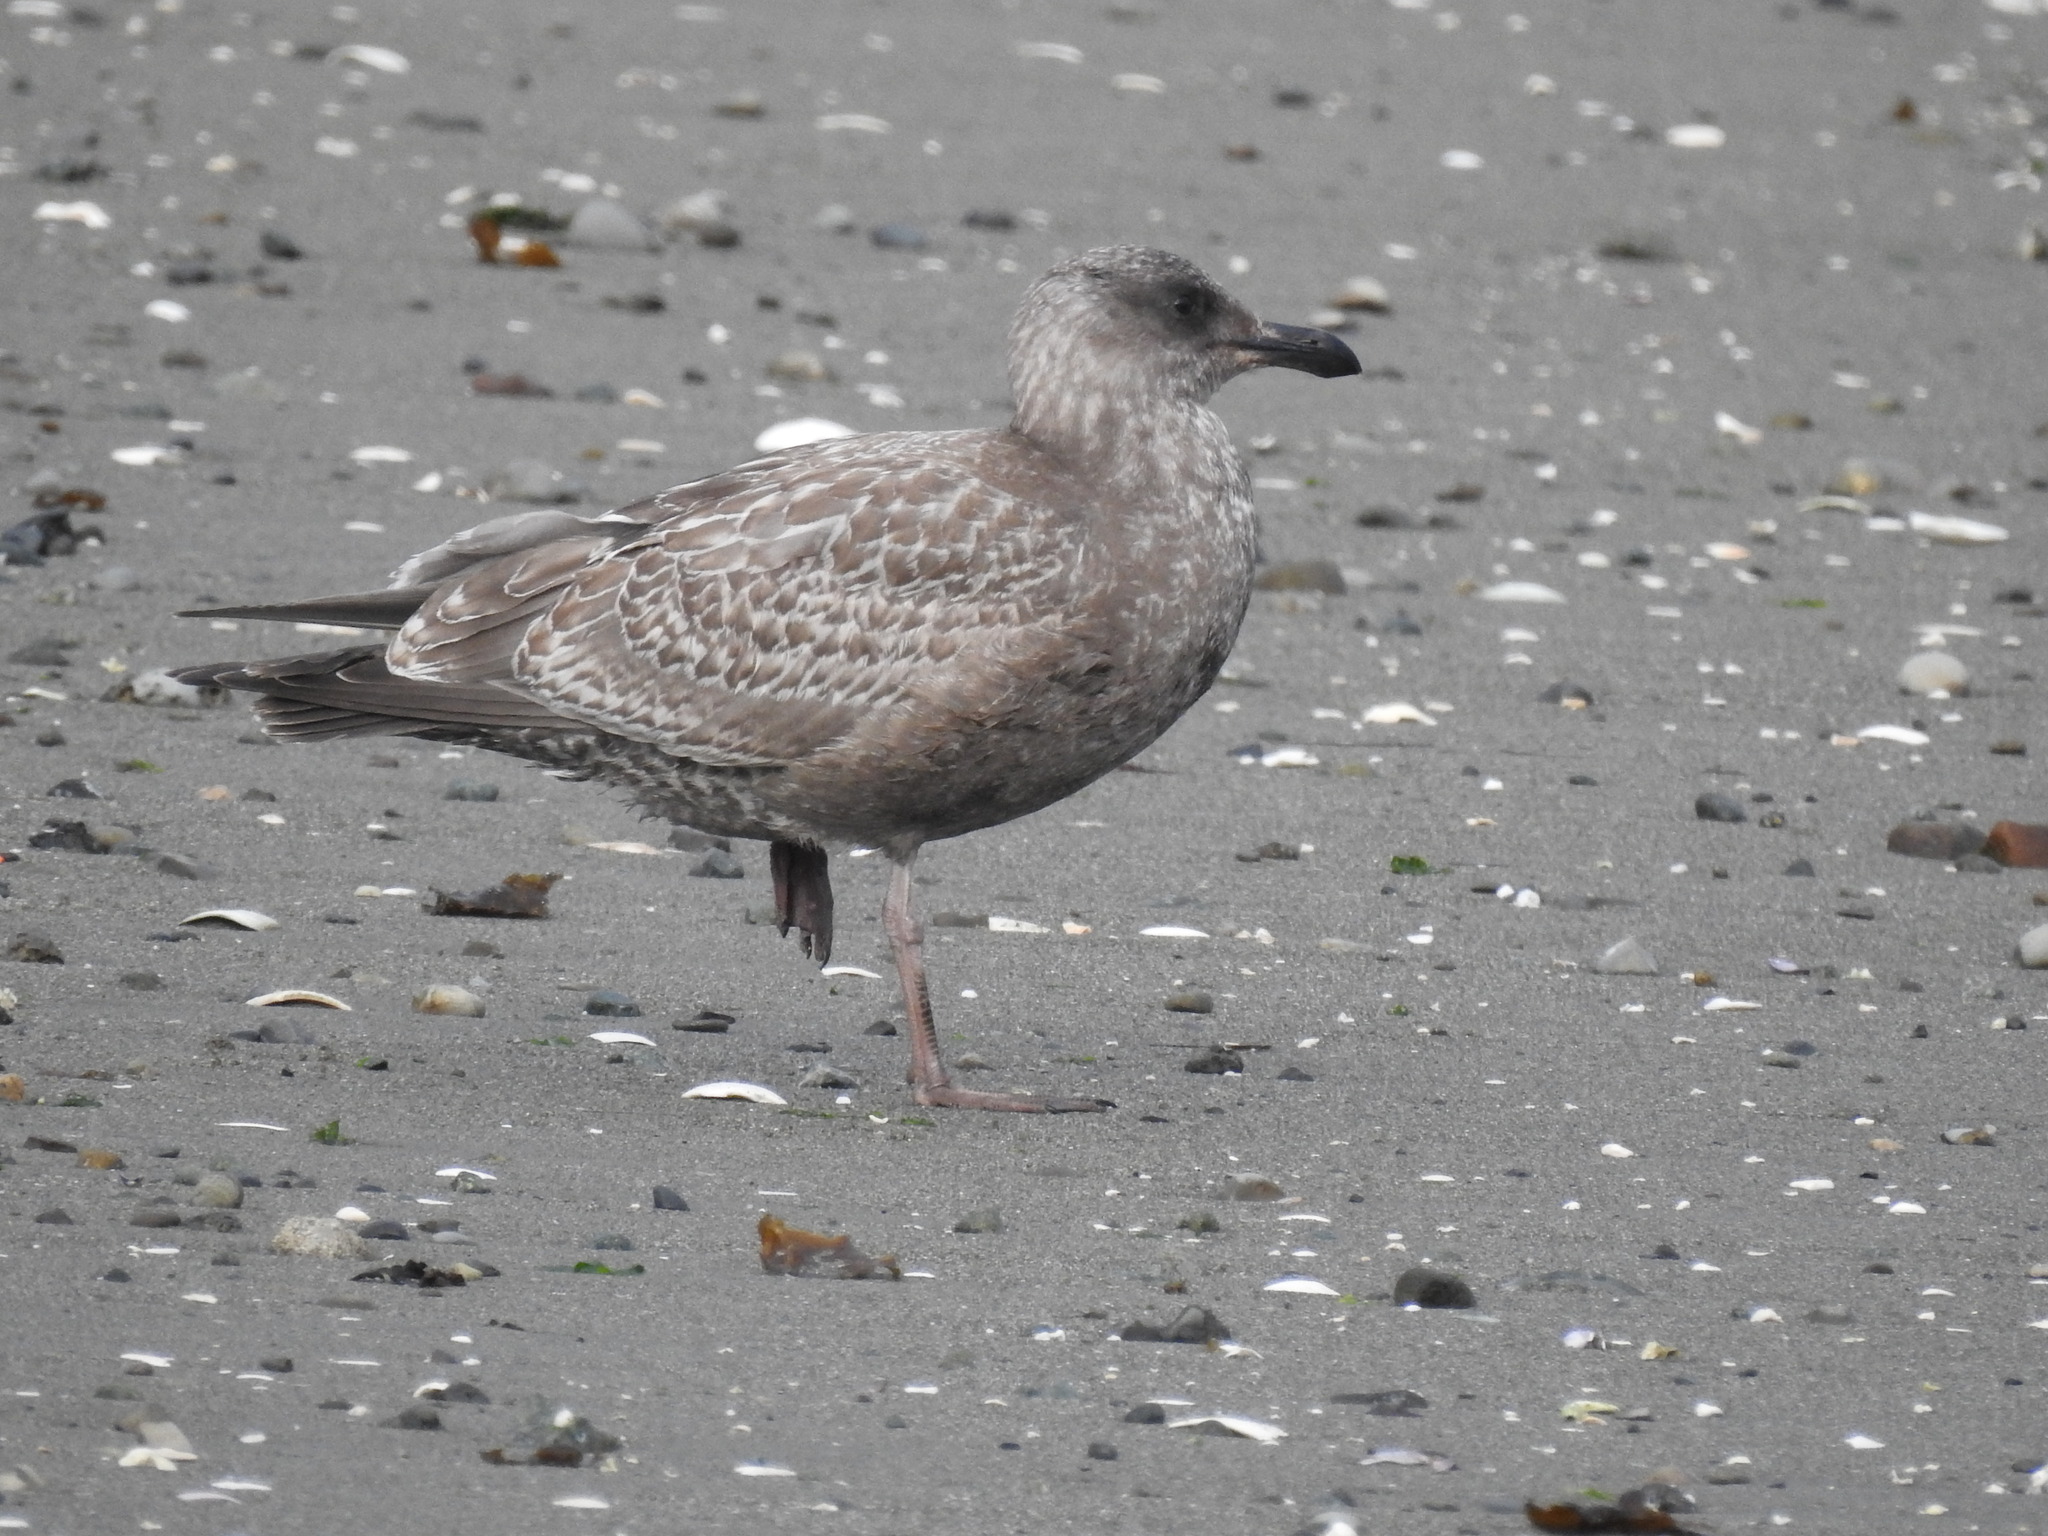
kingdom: Animalia
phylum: Chordata
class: Aves
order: Charadriiformes
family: Laridae
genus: Larus
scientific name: Larus
